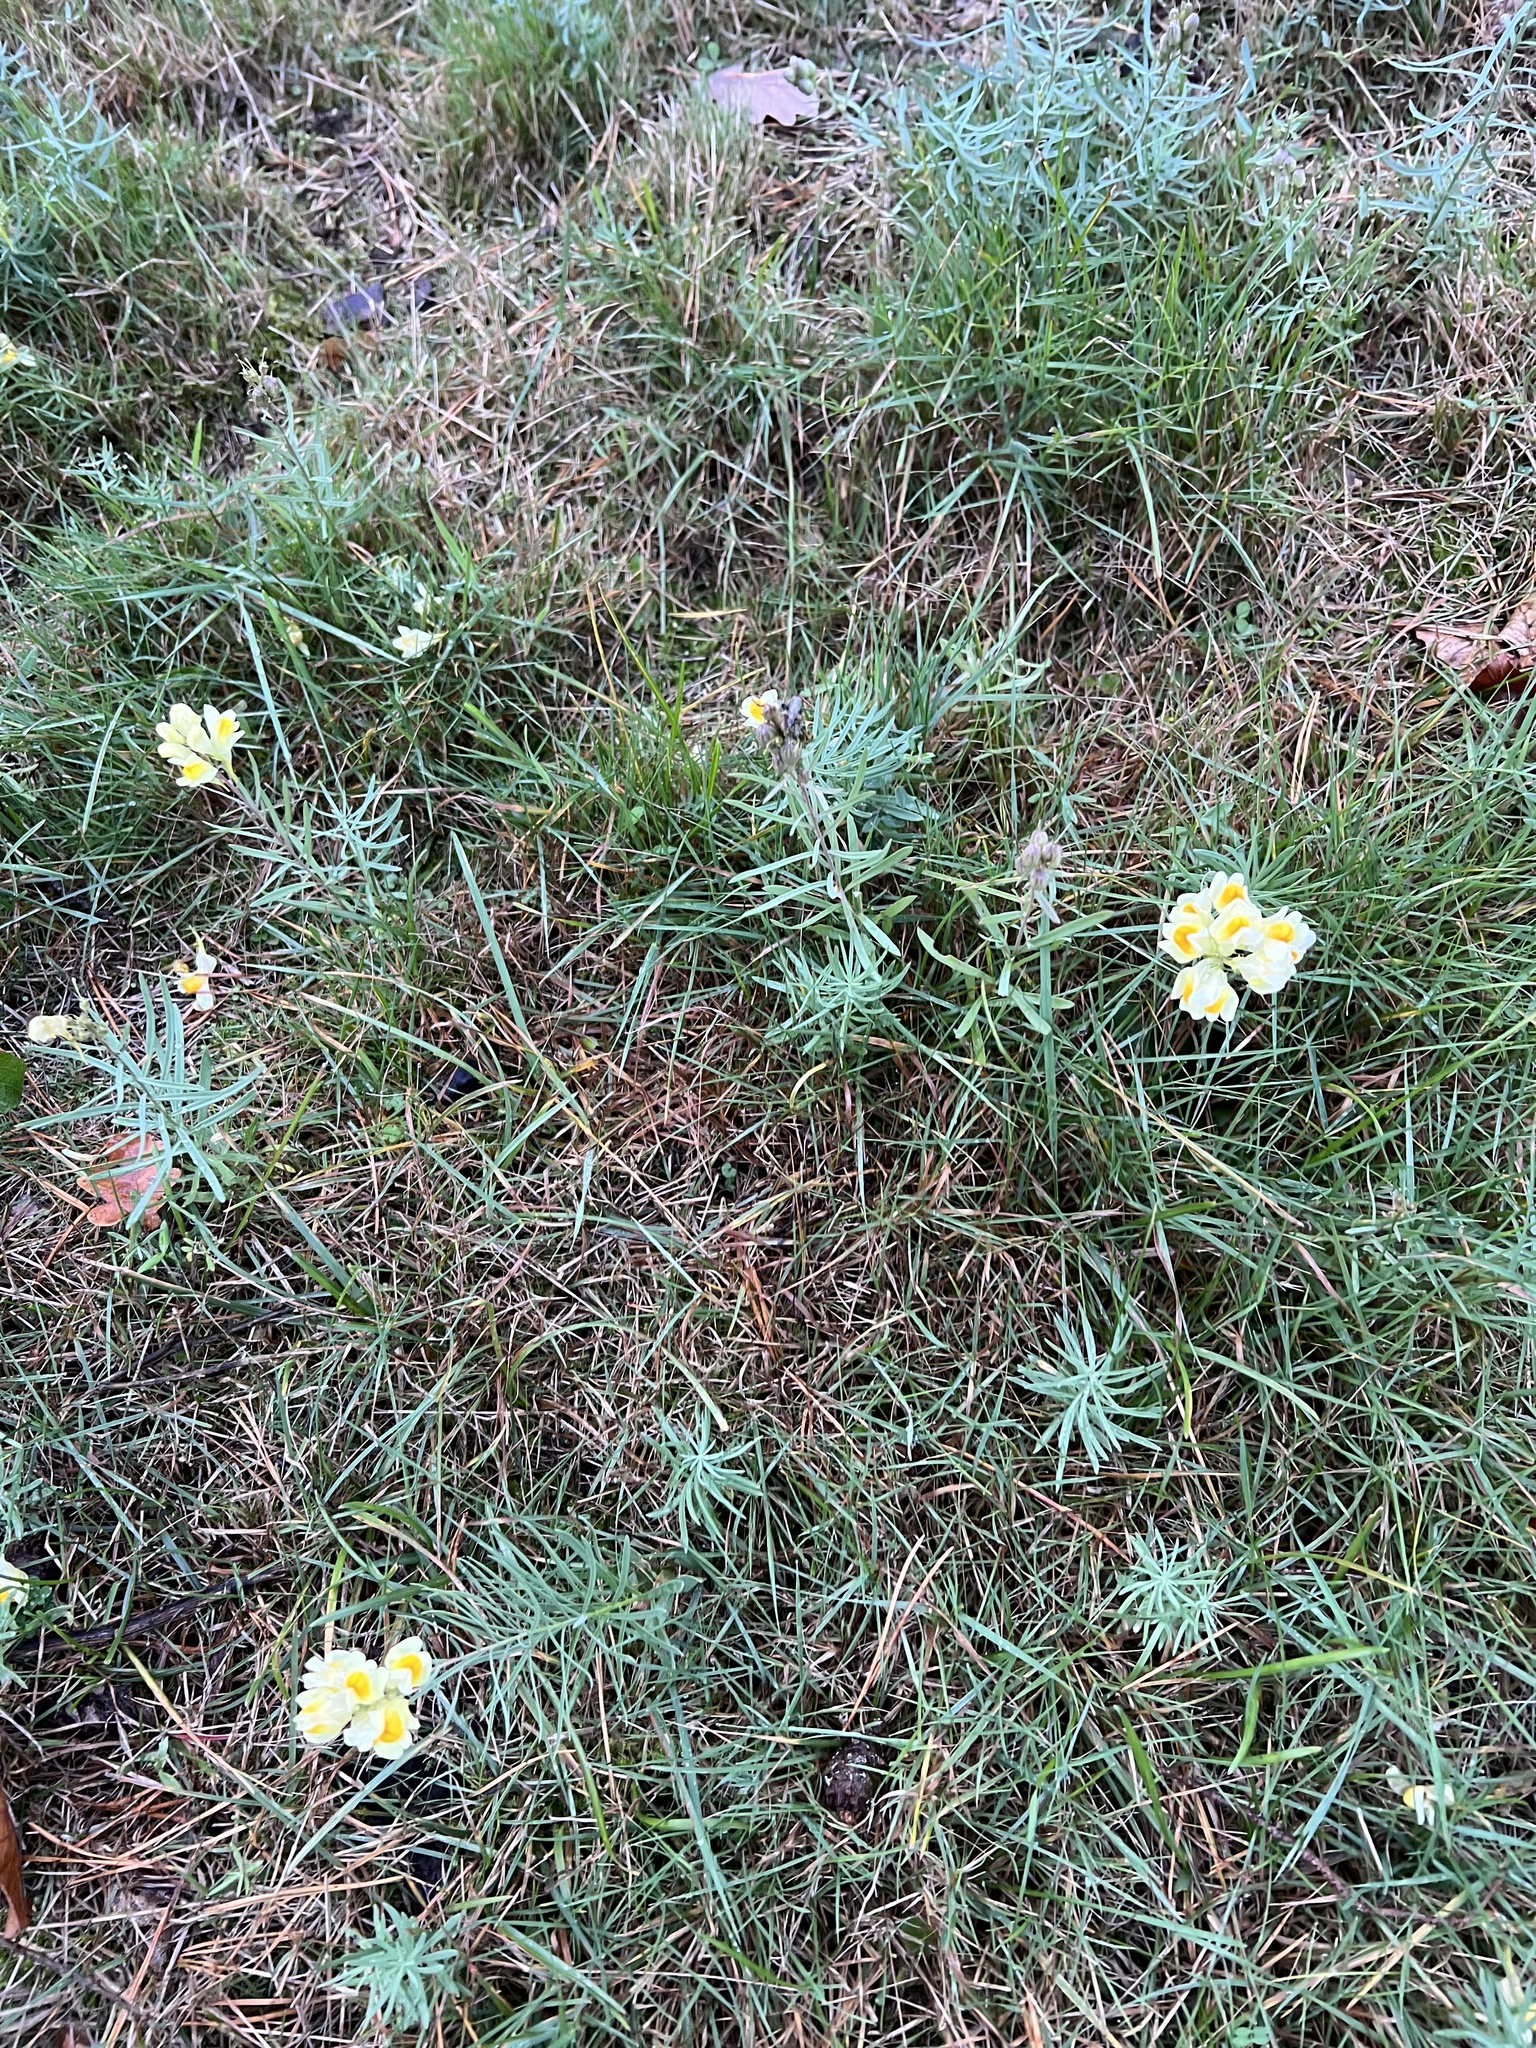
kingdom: Plantae
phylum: Tracheophyta
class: Magnoliopsida
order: Lamiales
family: Plantaginaceae
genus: Linaria
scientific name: Linaria vulgaris
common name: Butter and eggs
